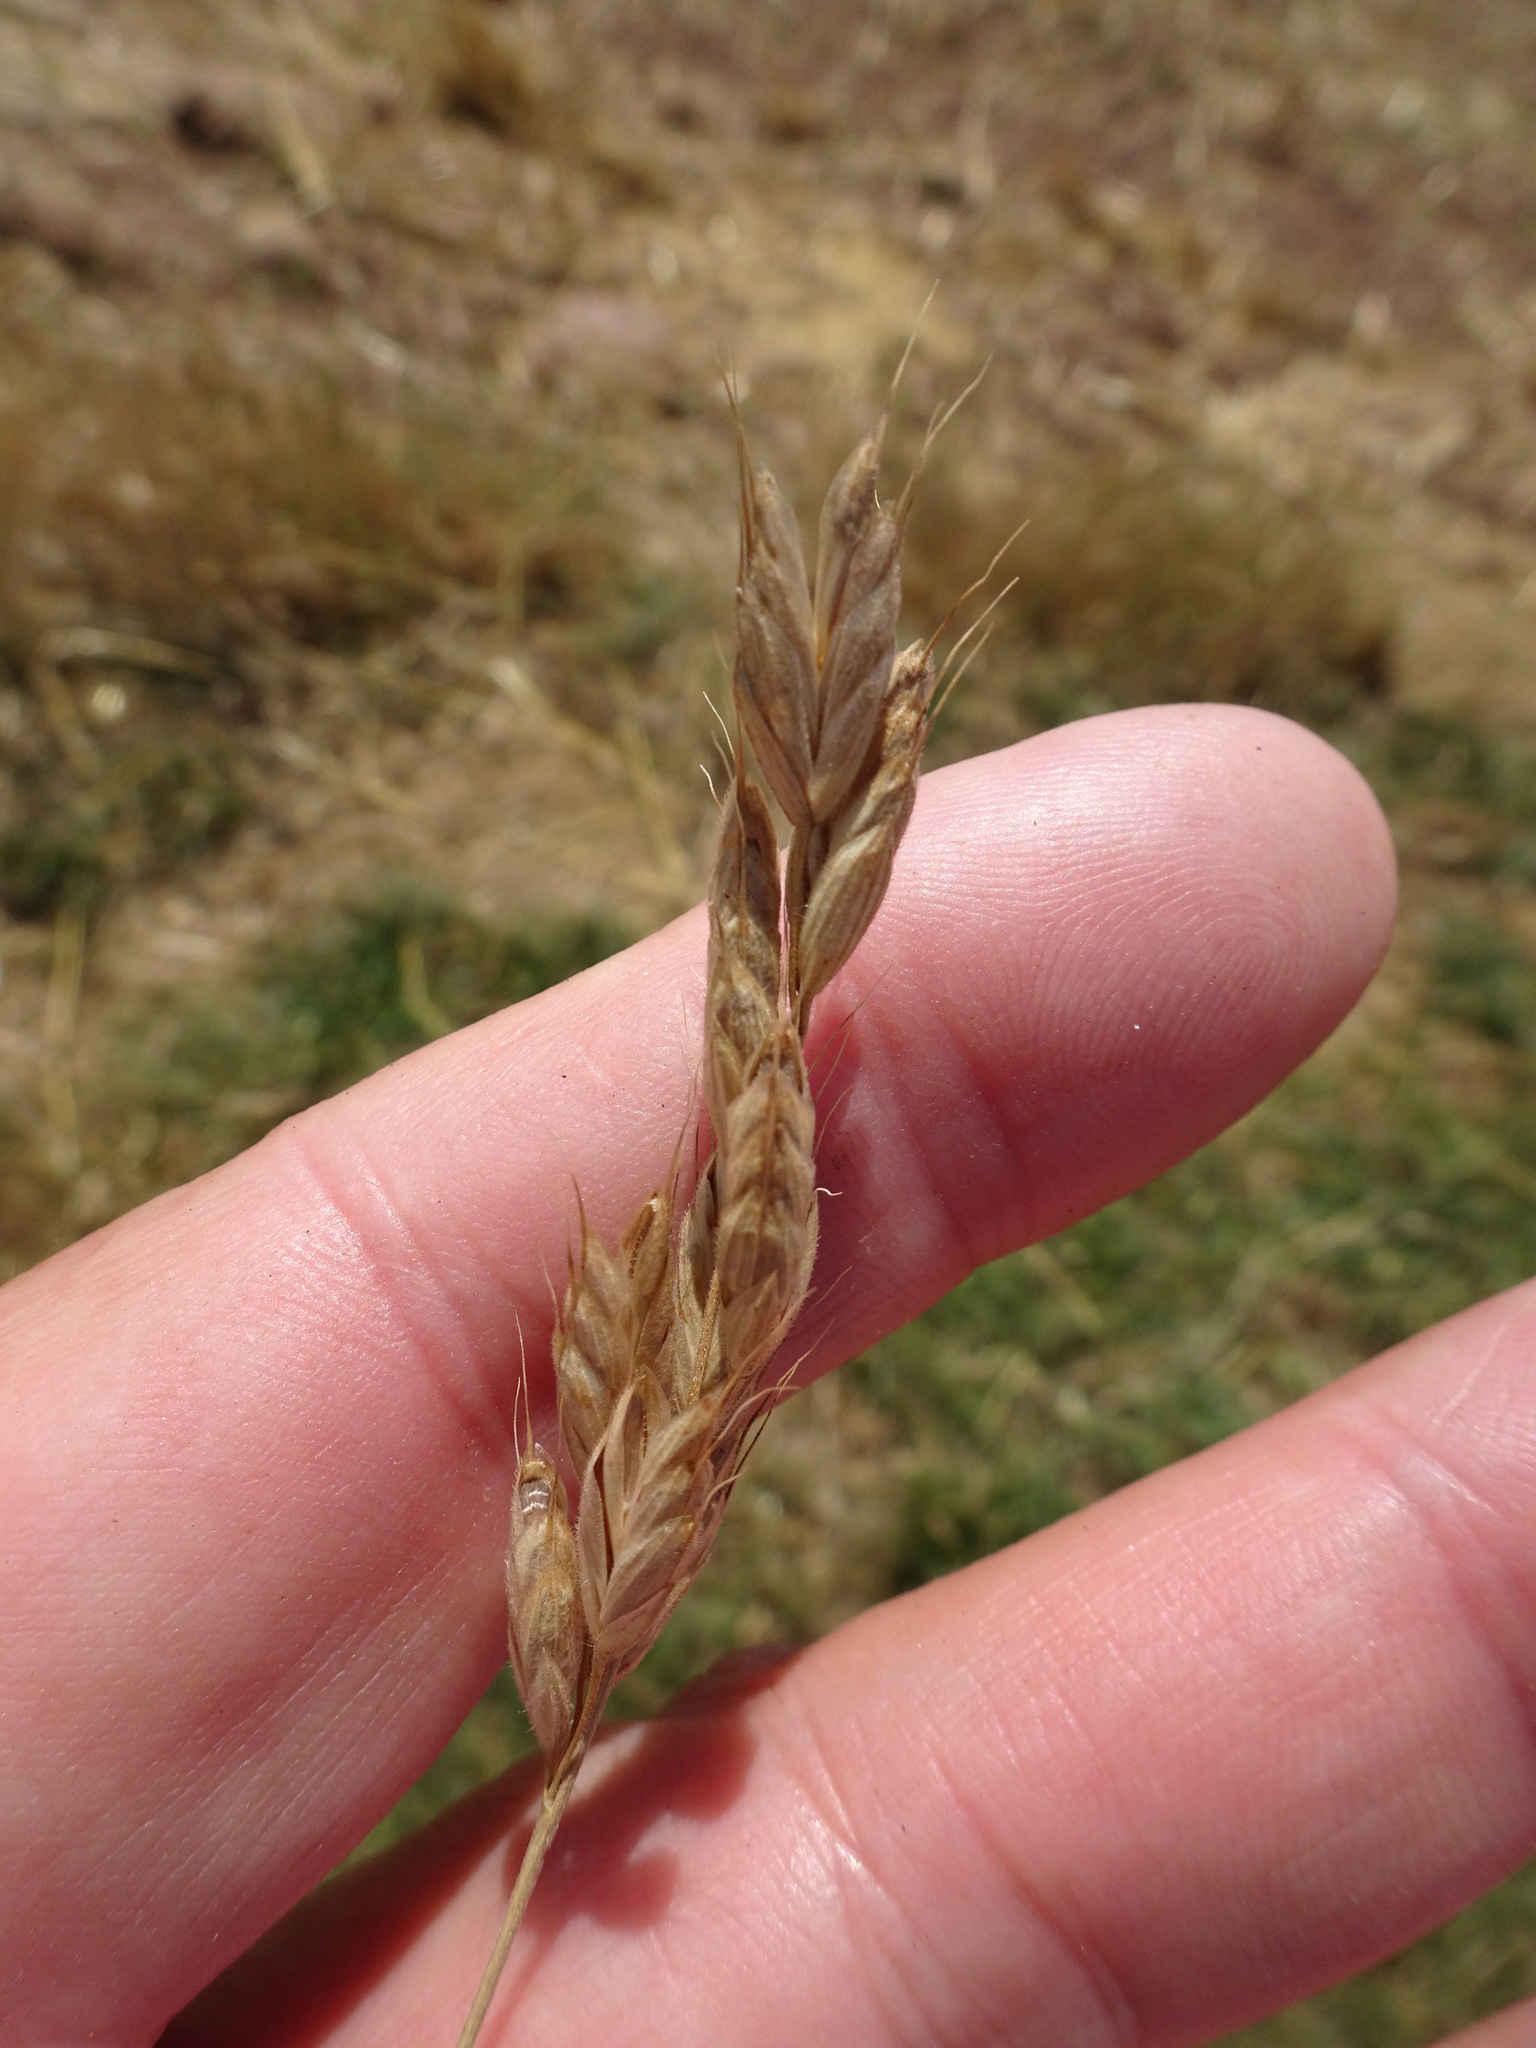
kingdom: Plantae
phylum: Tracheophyta
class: Liliopsida
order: Poales
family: Poaceae
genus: Bromus
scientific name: Bromus hordeaceus
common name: Soft brome
